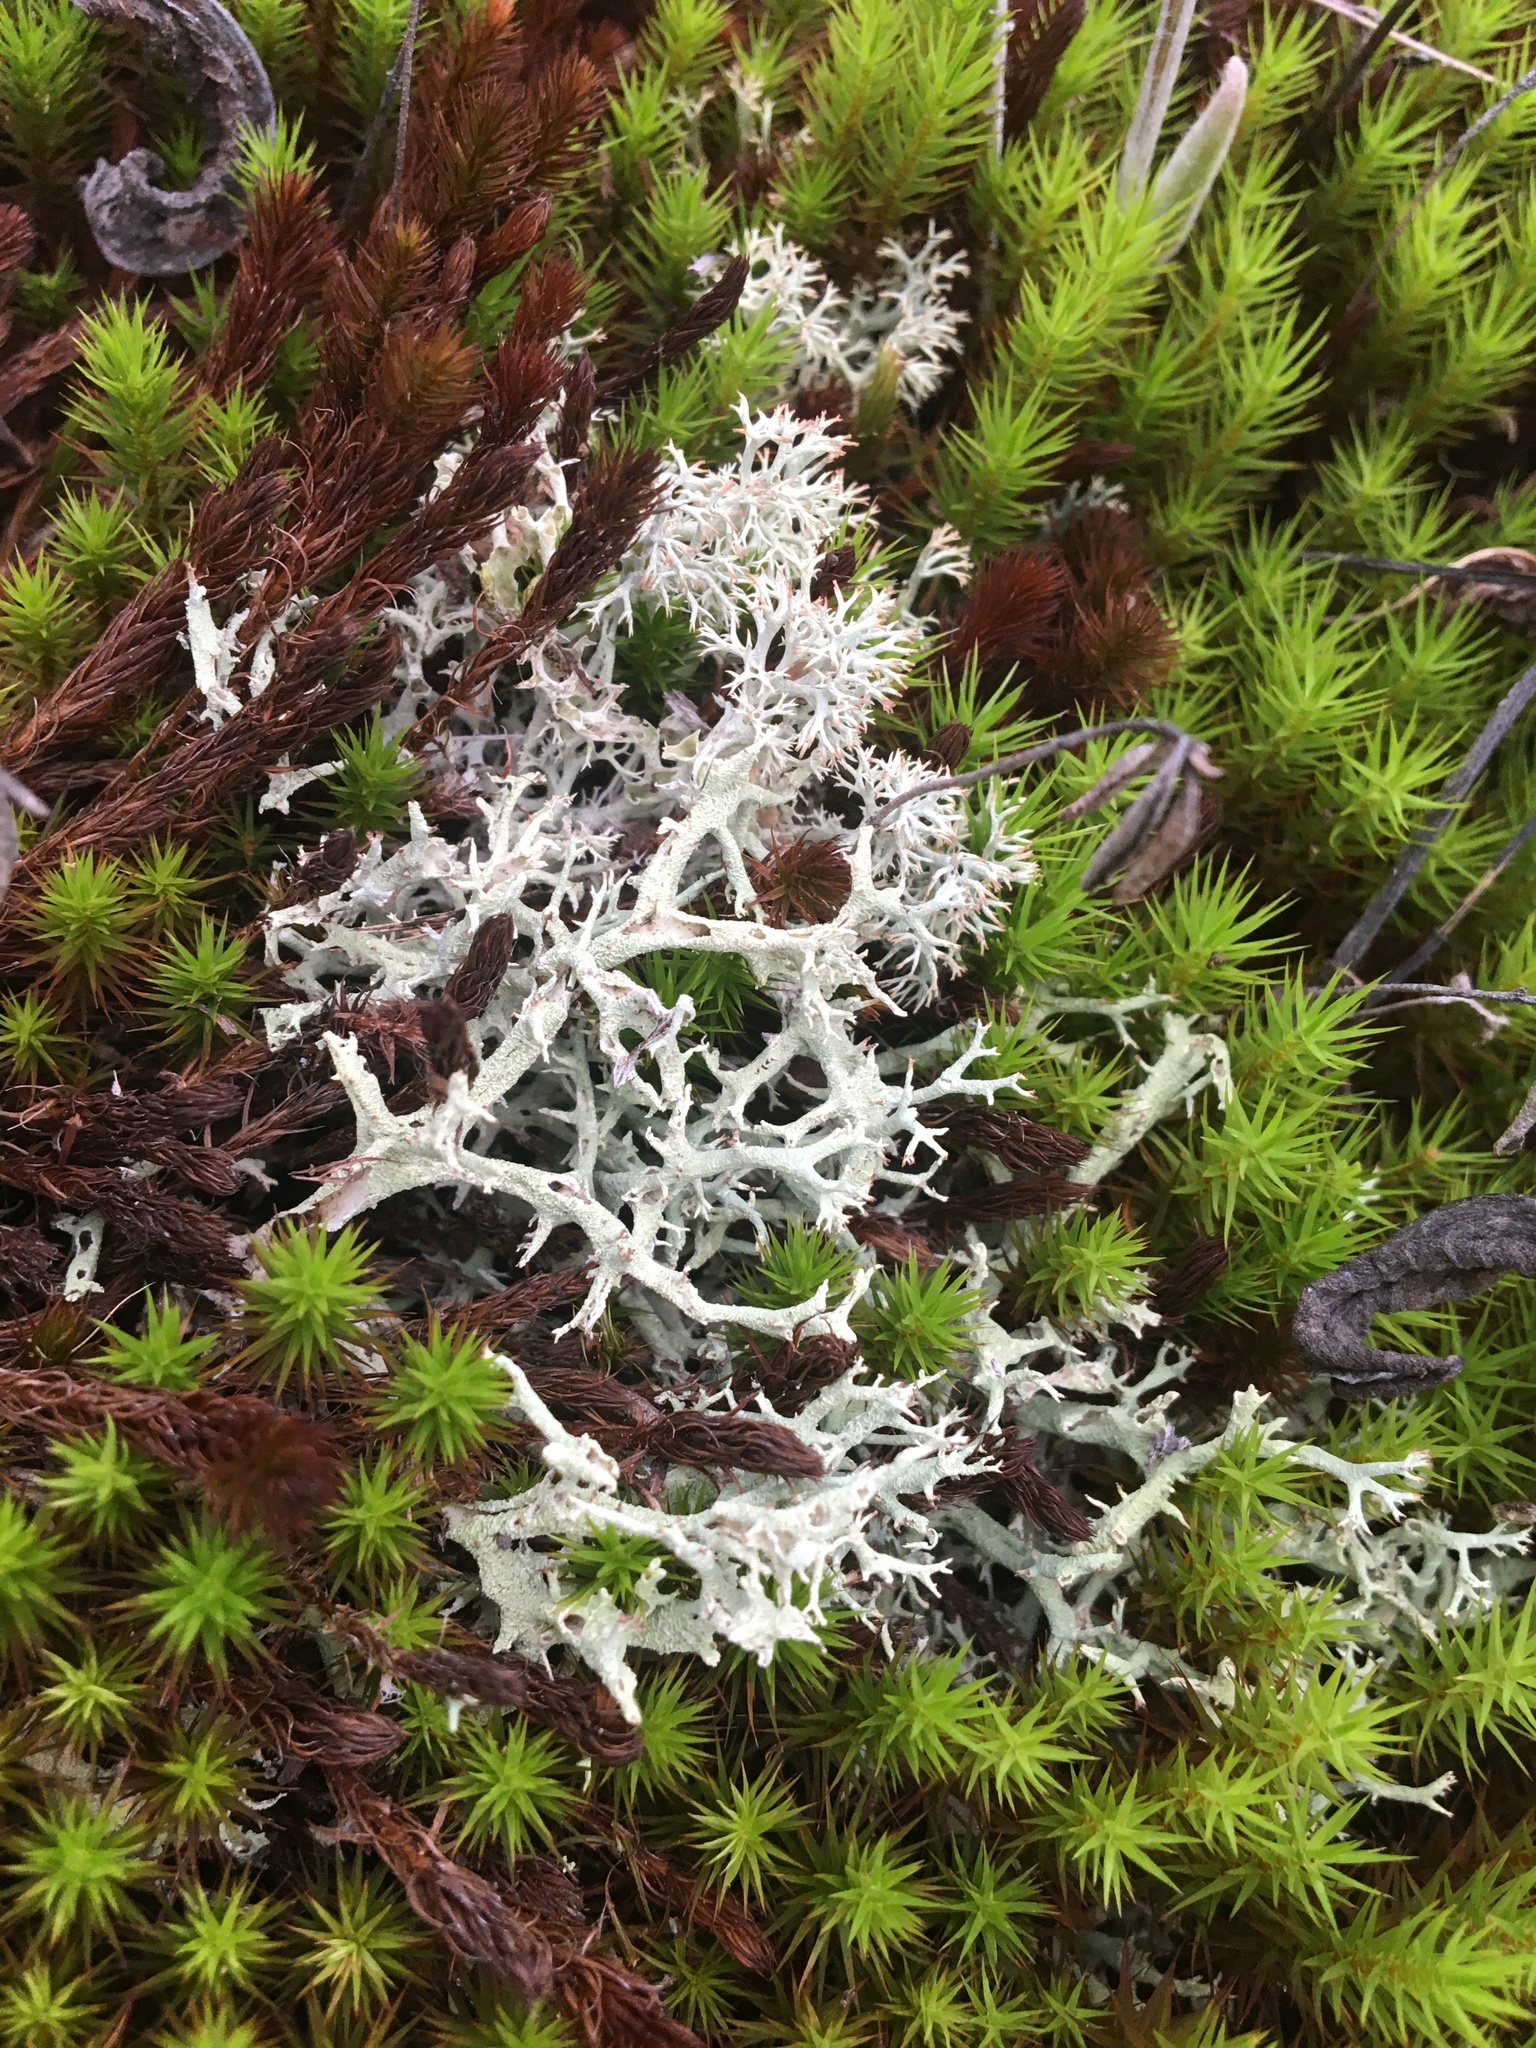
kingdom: Fungi
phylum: Ascomycota
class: Lecanoromycetes
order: Lecanorales
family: Cladoniaceae
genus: Cladonia
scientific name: Cladonia arbuscula
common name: Reindeer lichen
